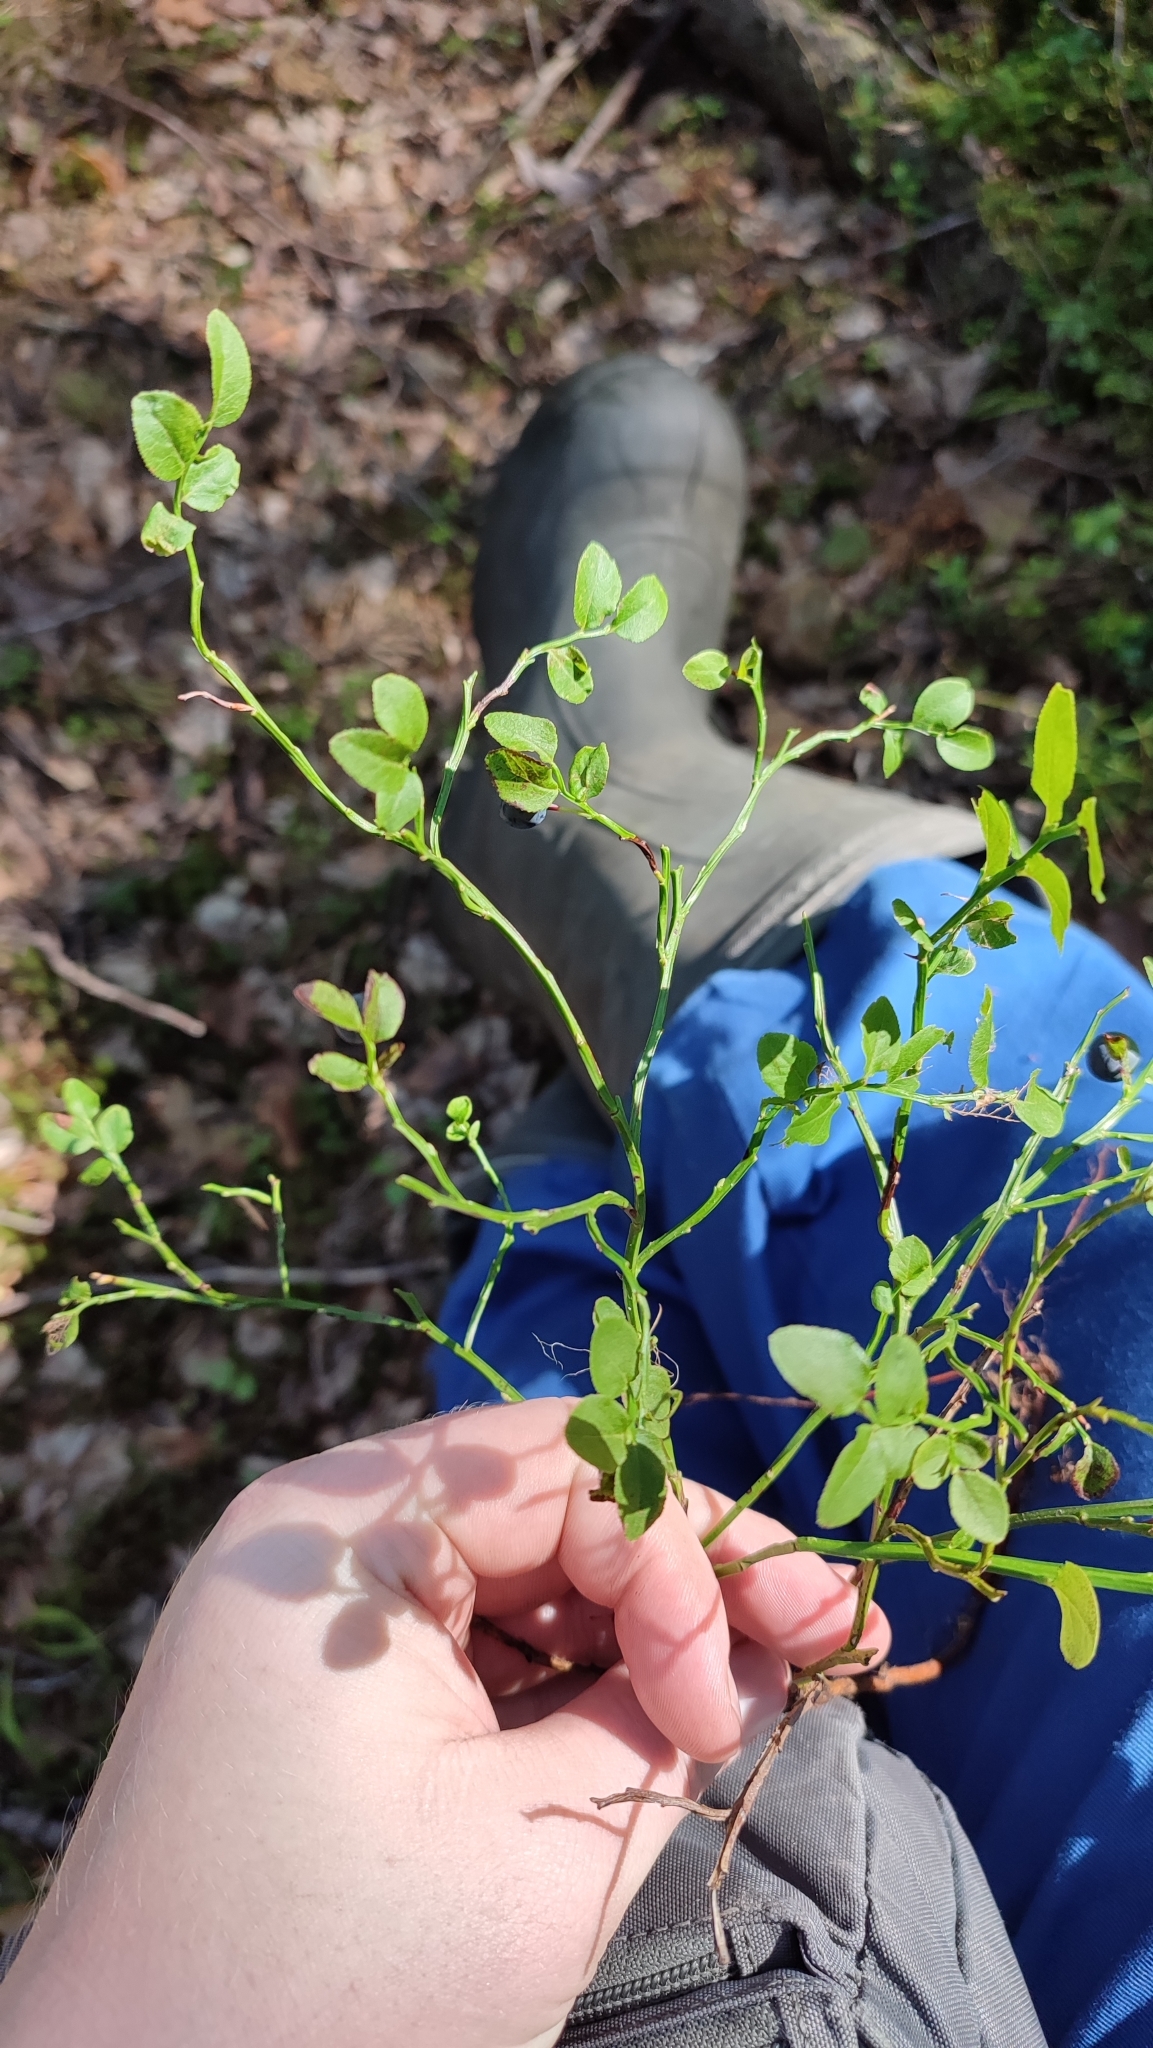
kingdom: Plantae
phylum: Tracheophyta
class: Magnoliopsida
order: Ericales
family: Ericaceae
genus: Vaccinium
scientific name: Vaccinium myrtillus
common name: Bilberry
